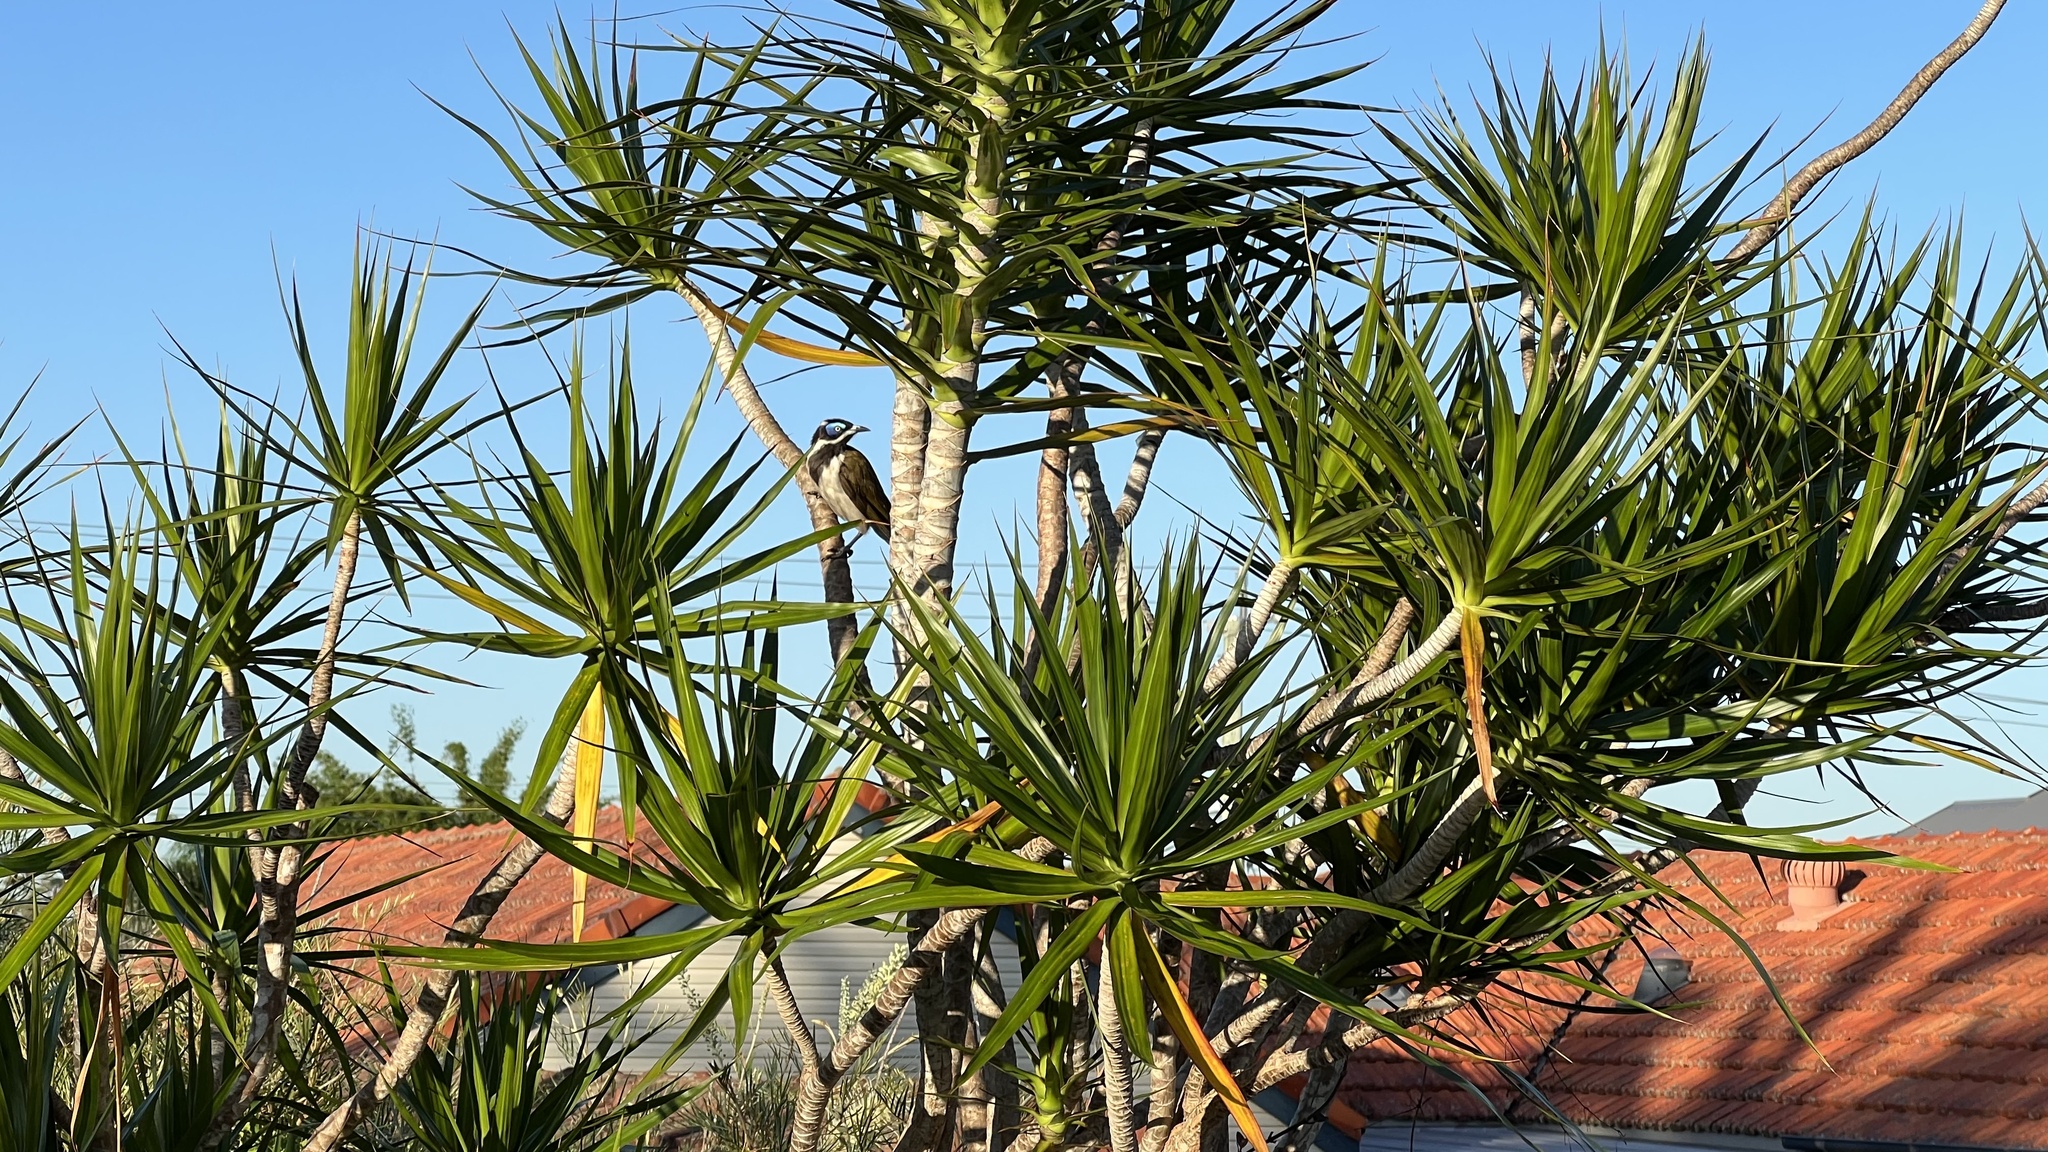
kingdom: Animalia
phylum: Chordata
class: Aves
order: Passeriformes
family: Meliphagidae
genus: Entomyzon
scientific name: Entomyzon cyanotis
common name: Blue-faced honeyeater
